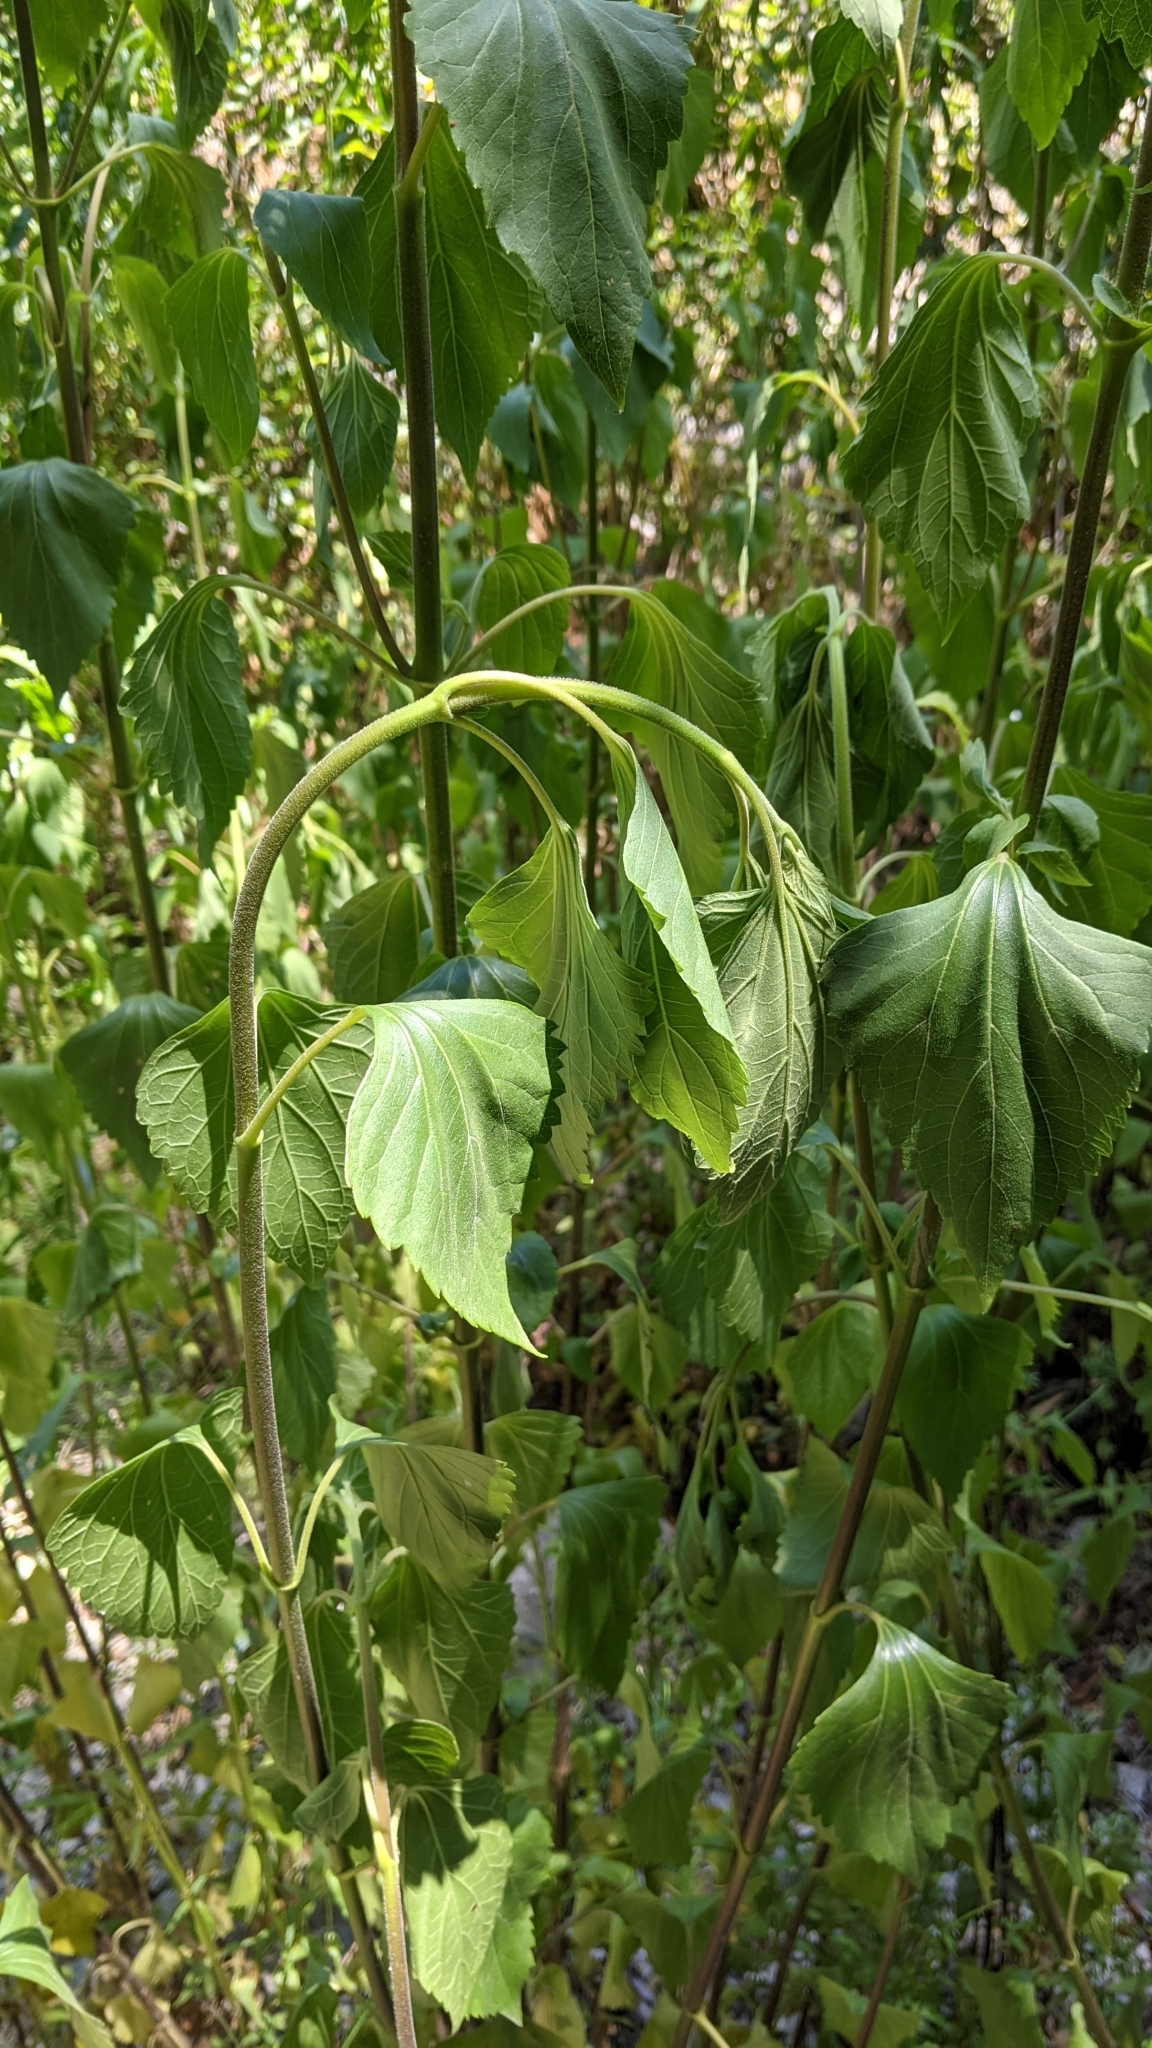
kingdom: Plantae
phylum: Tracheophyta
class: Magnoliopsida
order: Asterales
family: Asteraceae
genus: Ageratina
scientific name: Ageratina adenophora
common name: Sticky snakeroot
